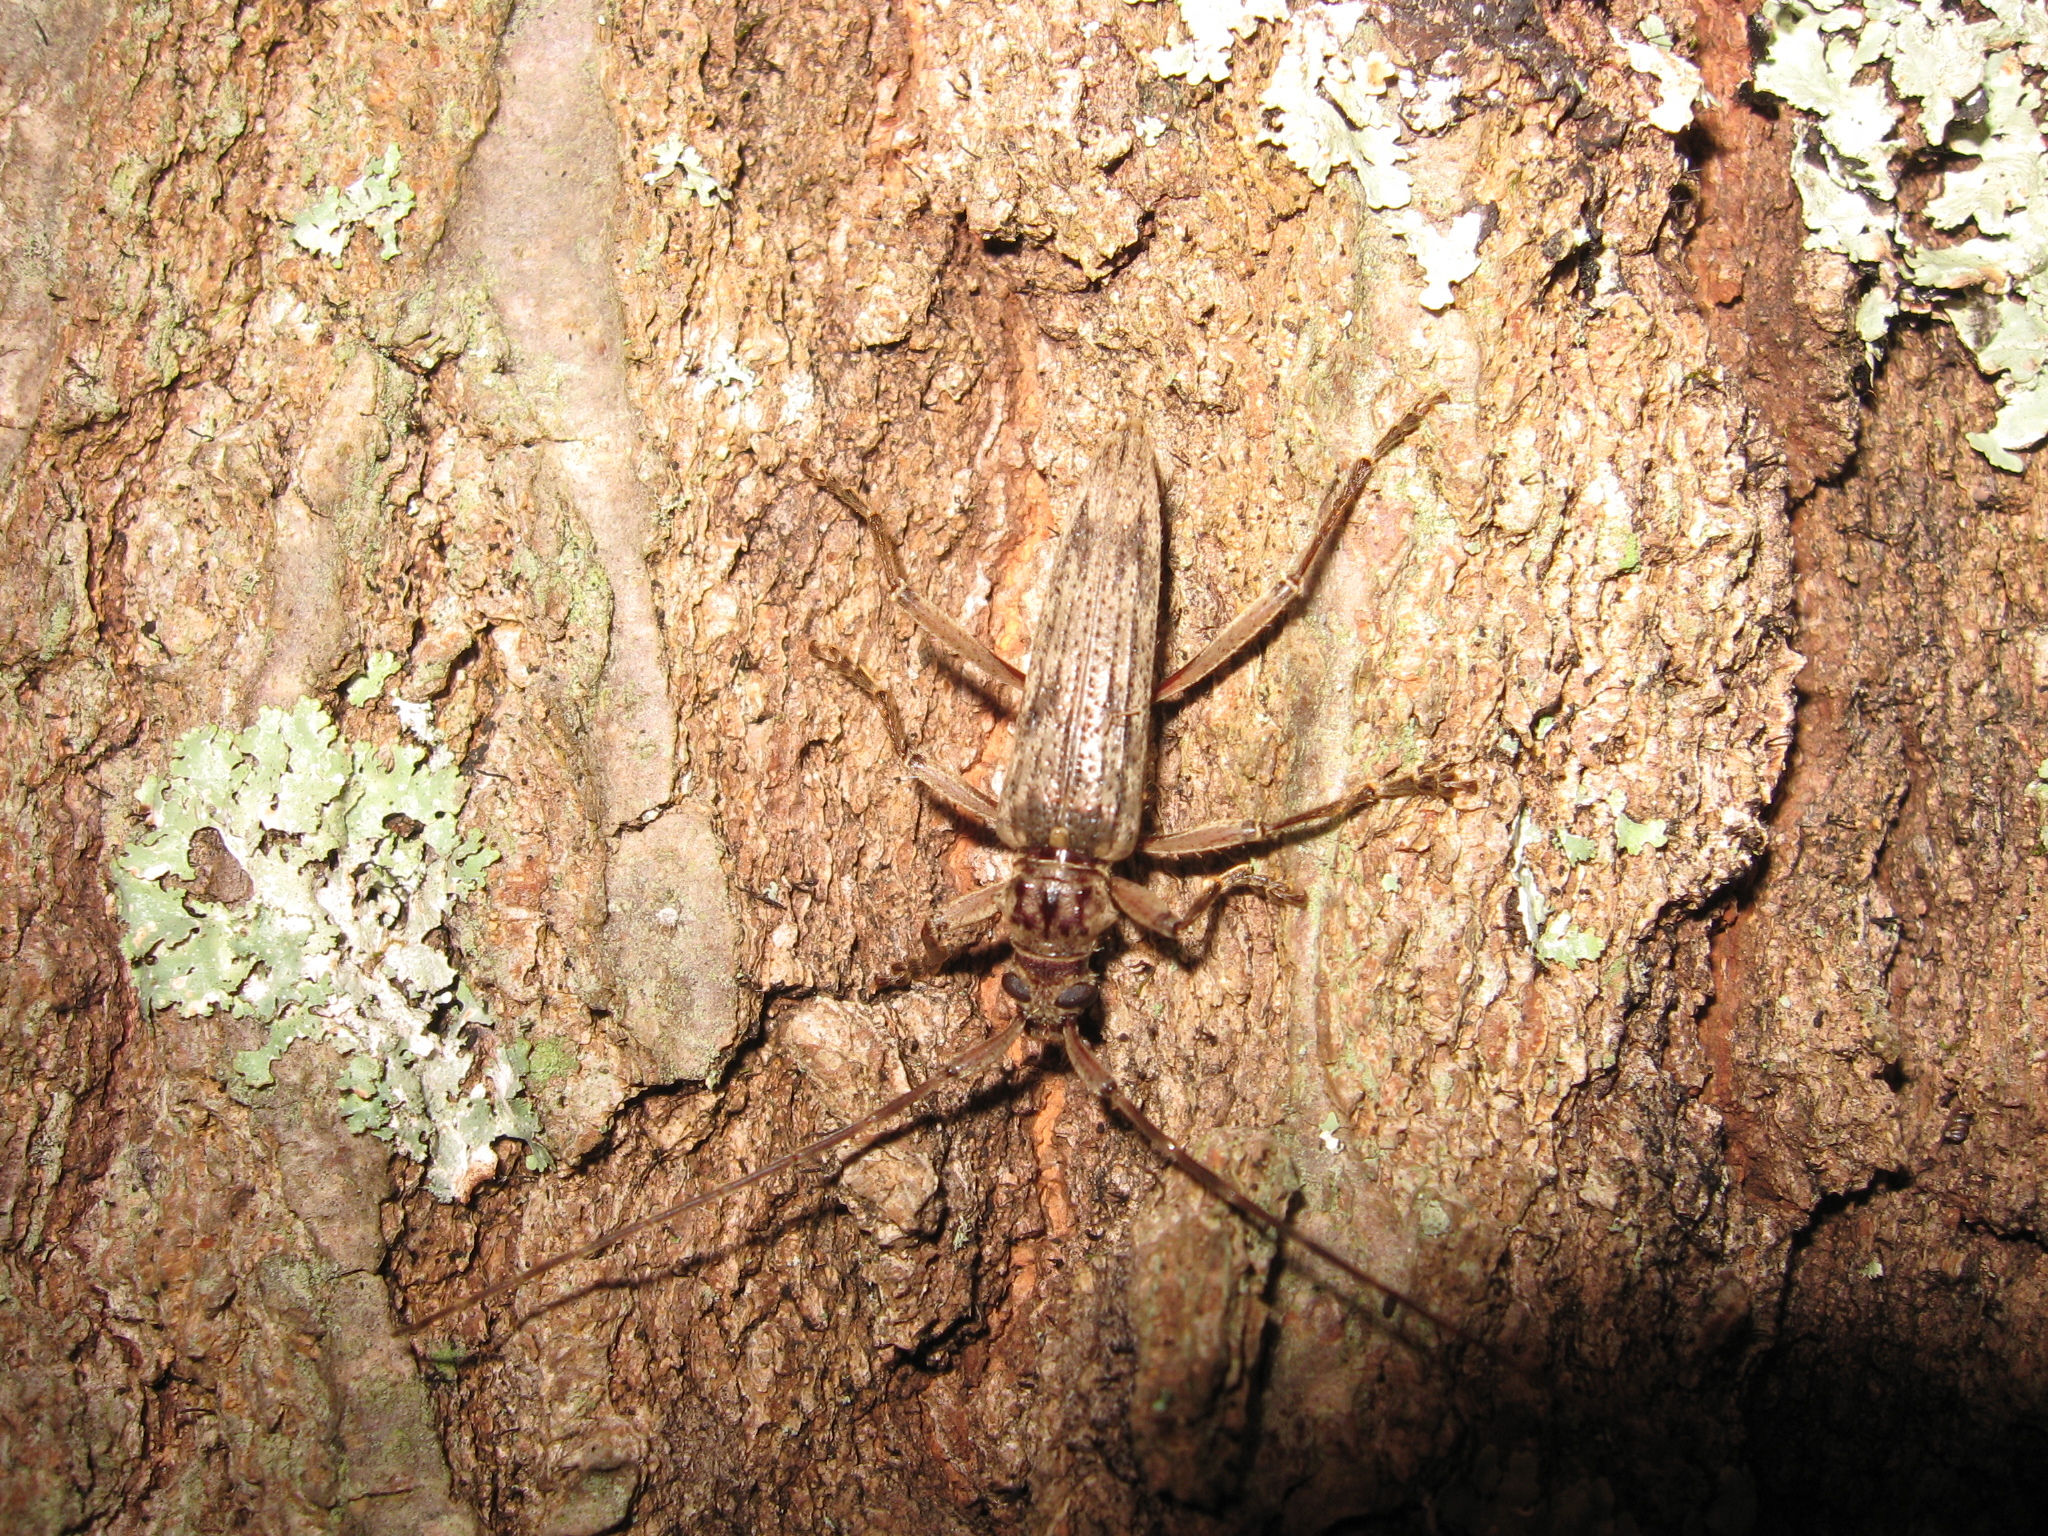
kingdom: Animalia
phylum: Arthropoda
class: Insecta
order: Coleoptera
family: Cerambycidae
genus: Elytrimitatrix
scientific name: Elytrimitatrix undata
